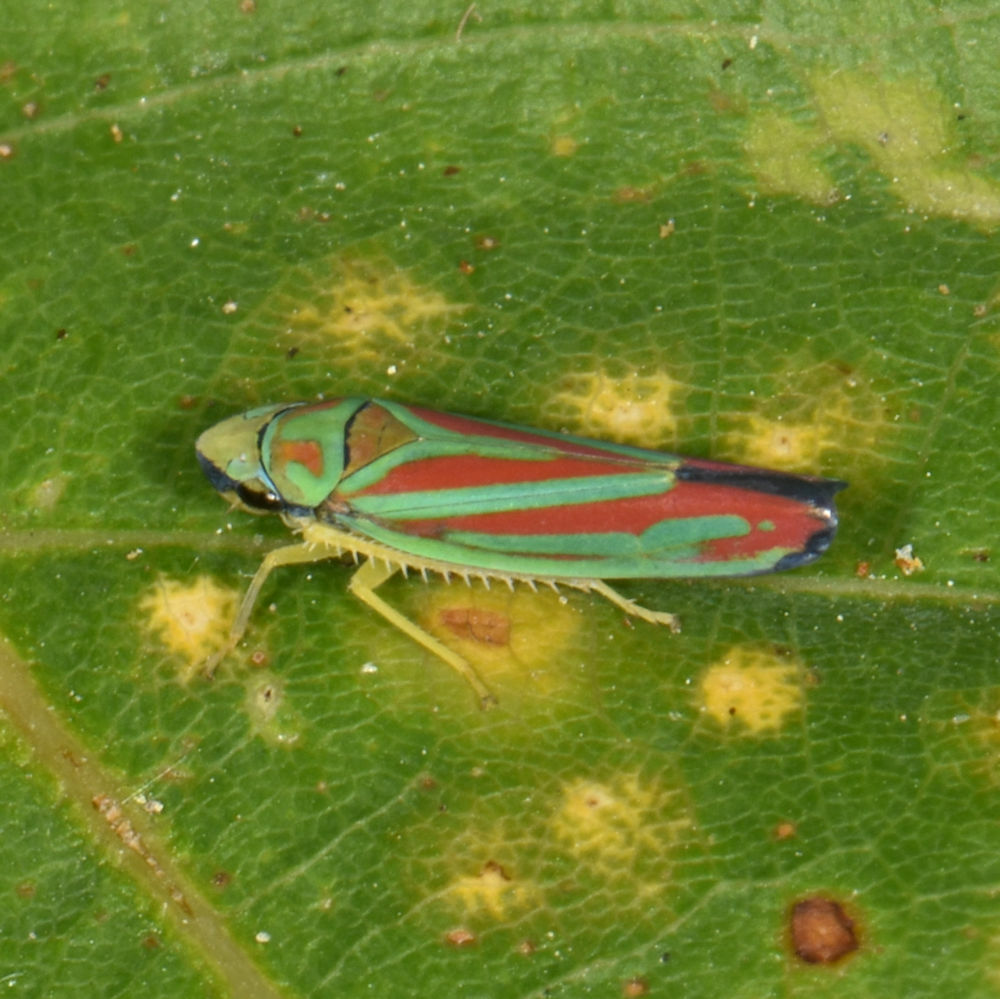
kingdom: Animalia
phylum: Arthropoda
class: Insecta
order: Hemiptera
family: Cicadellidae
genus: Graphocephala
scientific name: Graphocephala coccinea
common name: Candy-striped leafhopper
